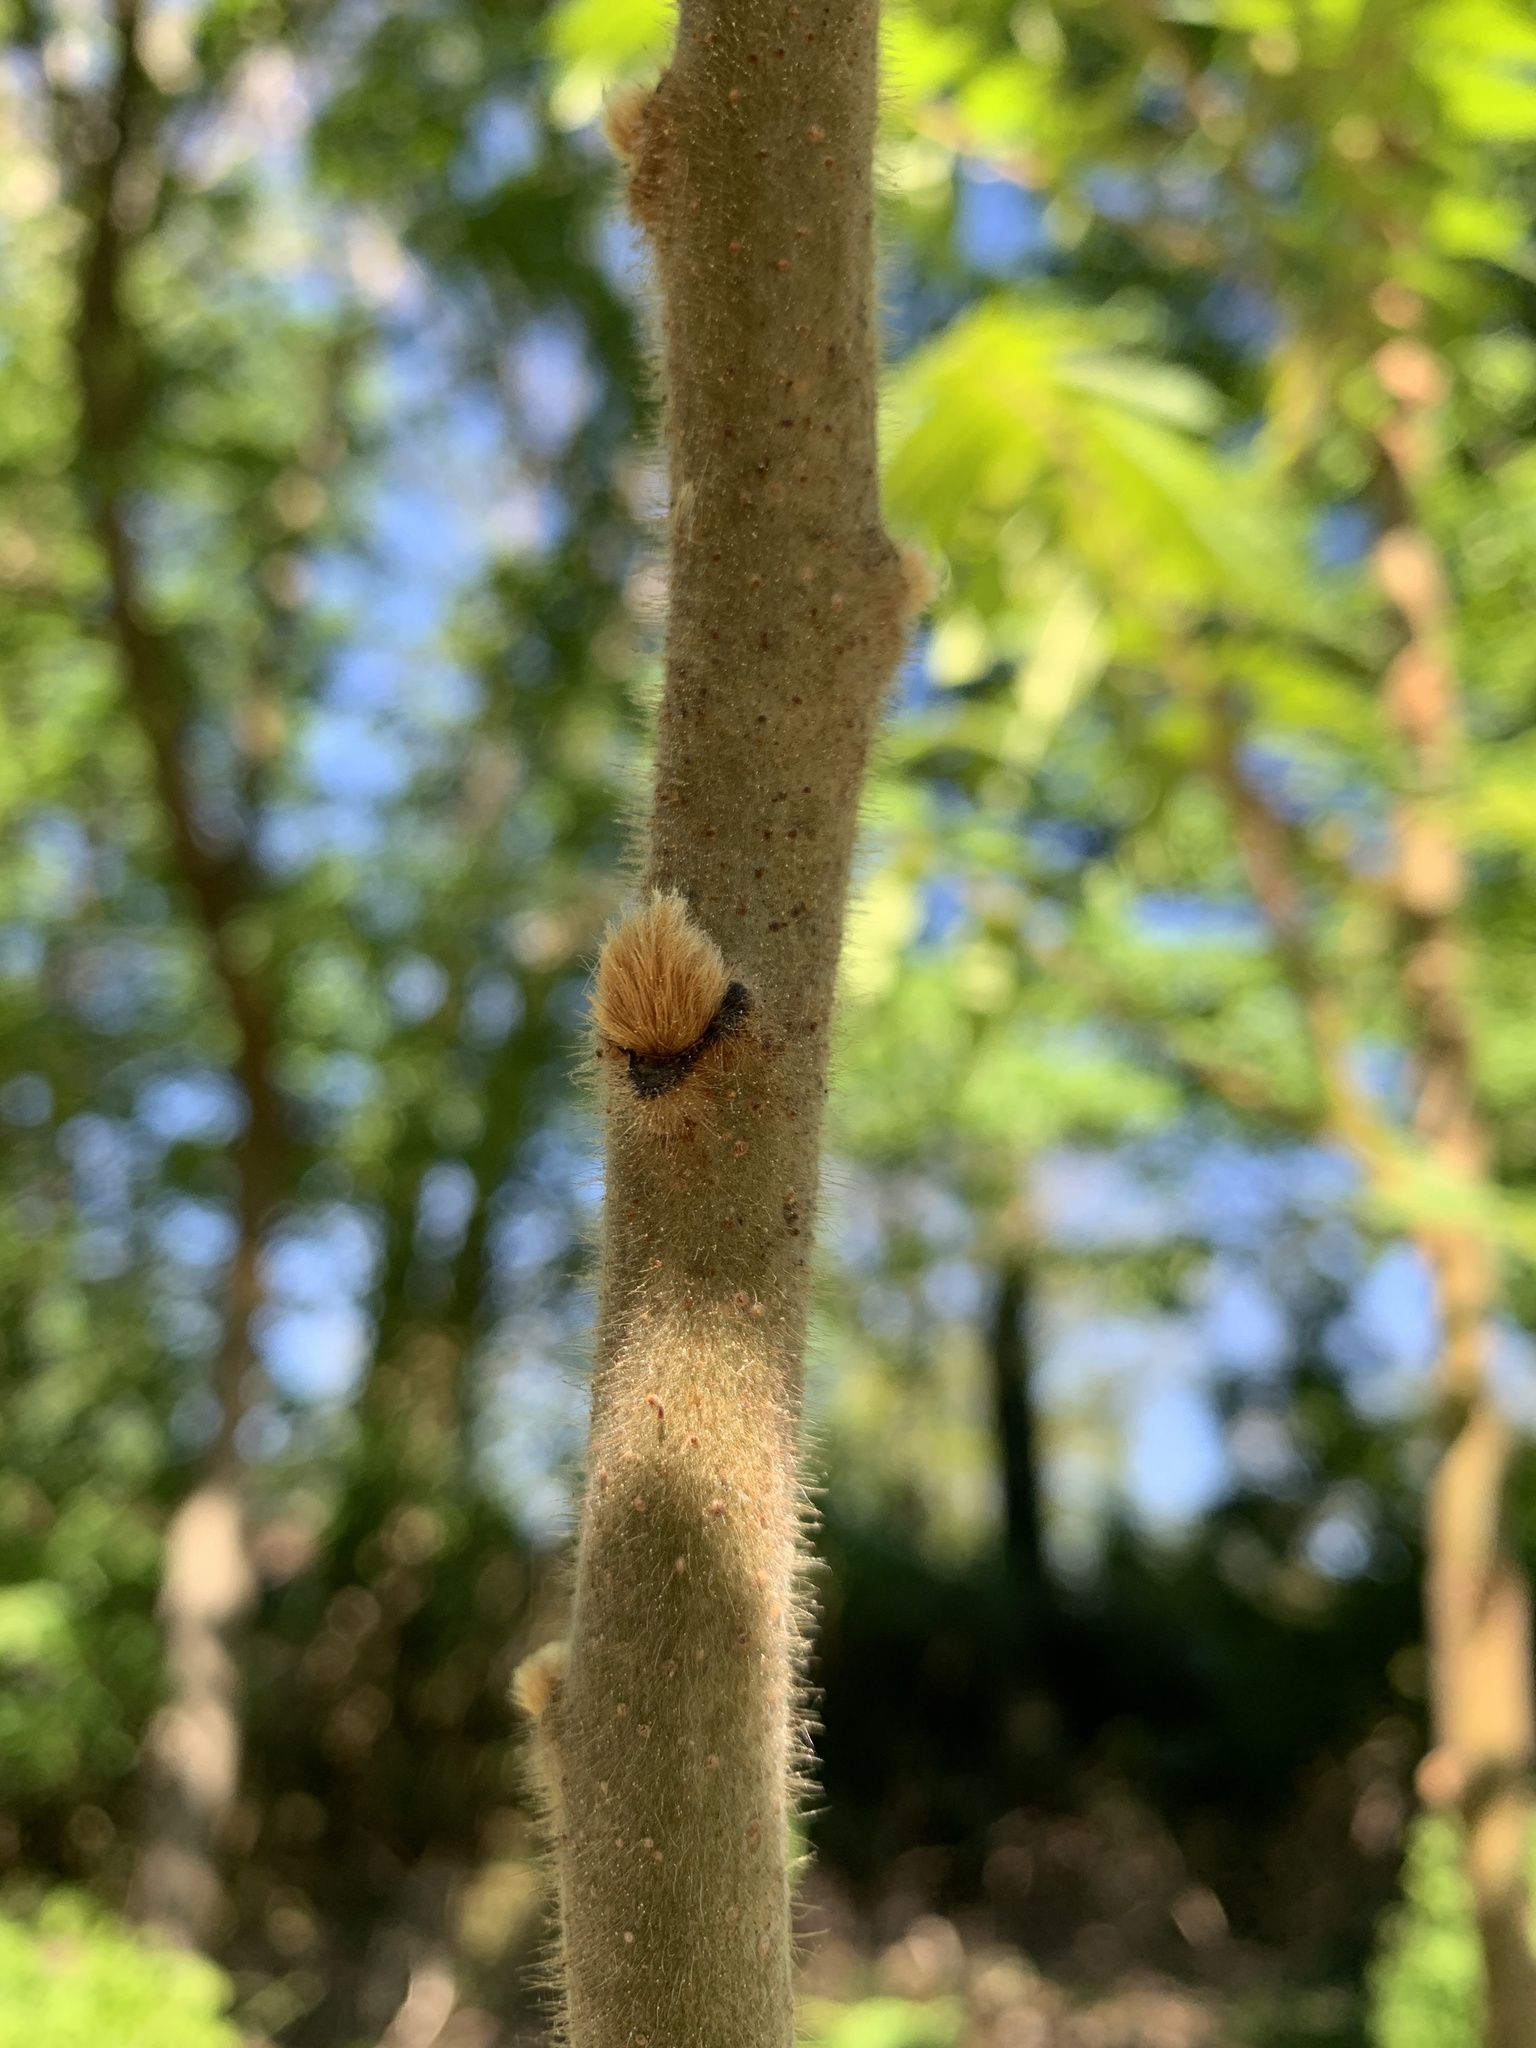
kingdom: Plantae
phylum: Tracheophyta
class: Magnoliopsida
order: Sapindales
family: Anacardiaceae
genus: Rhus
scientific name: Rhus typhina
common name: Staghorn sumac
